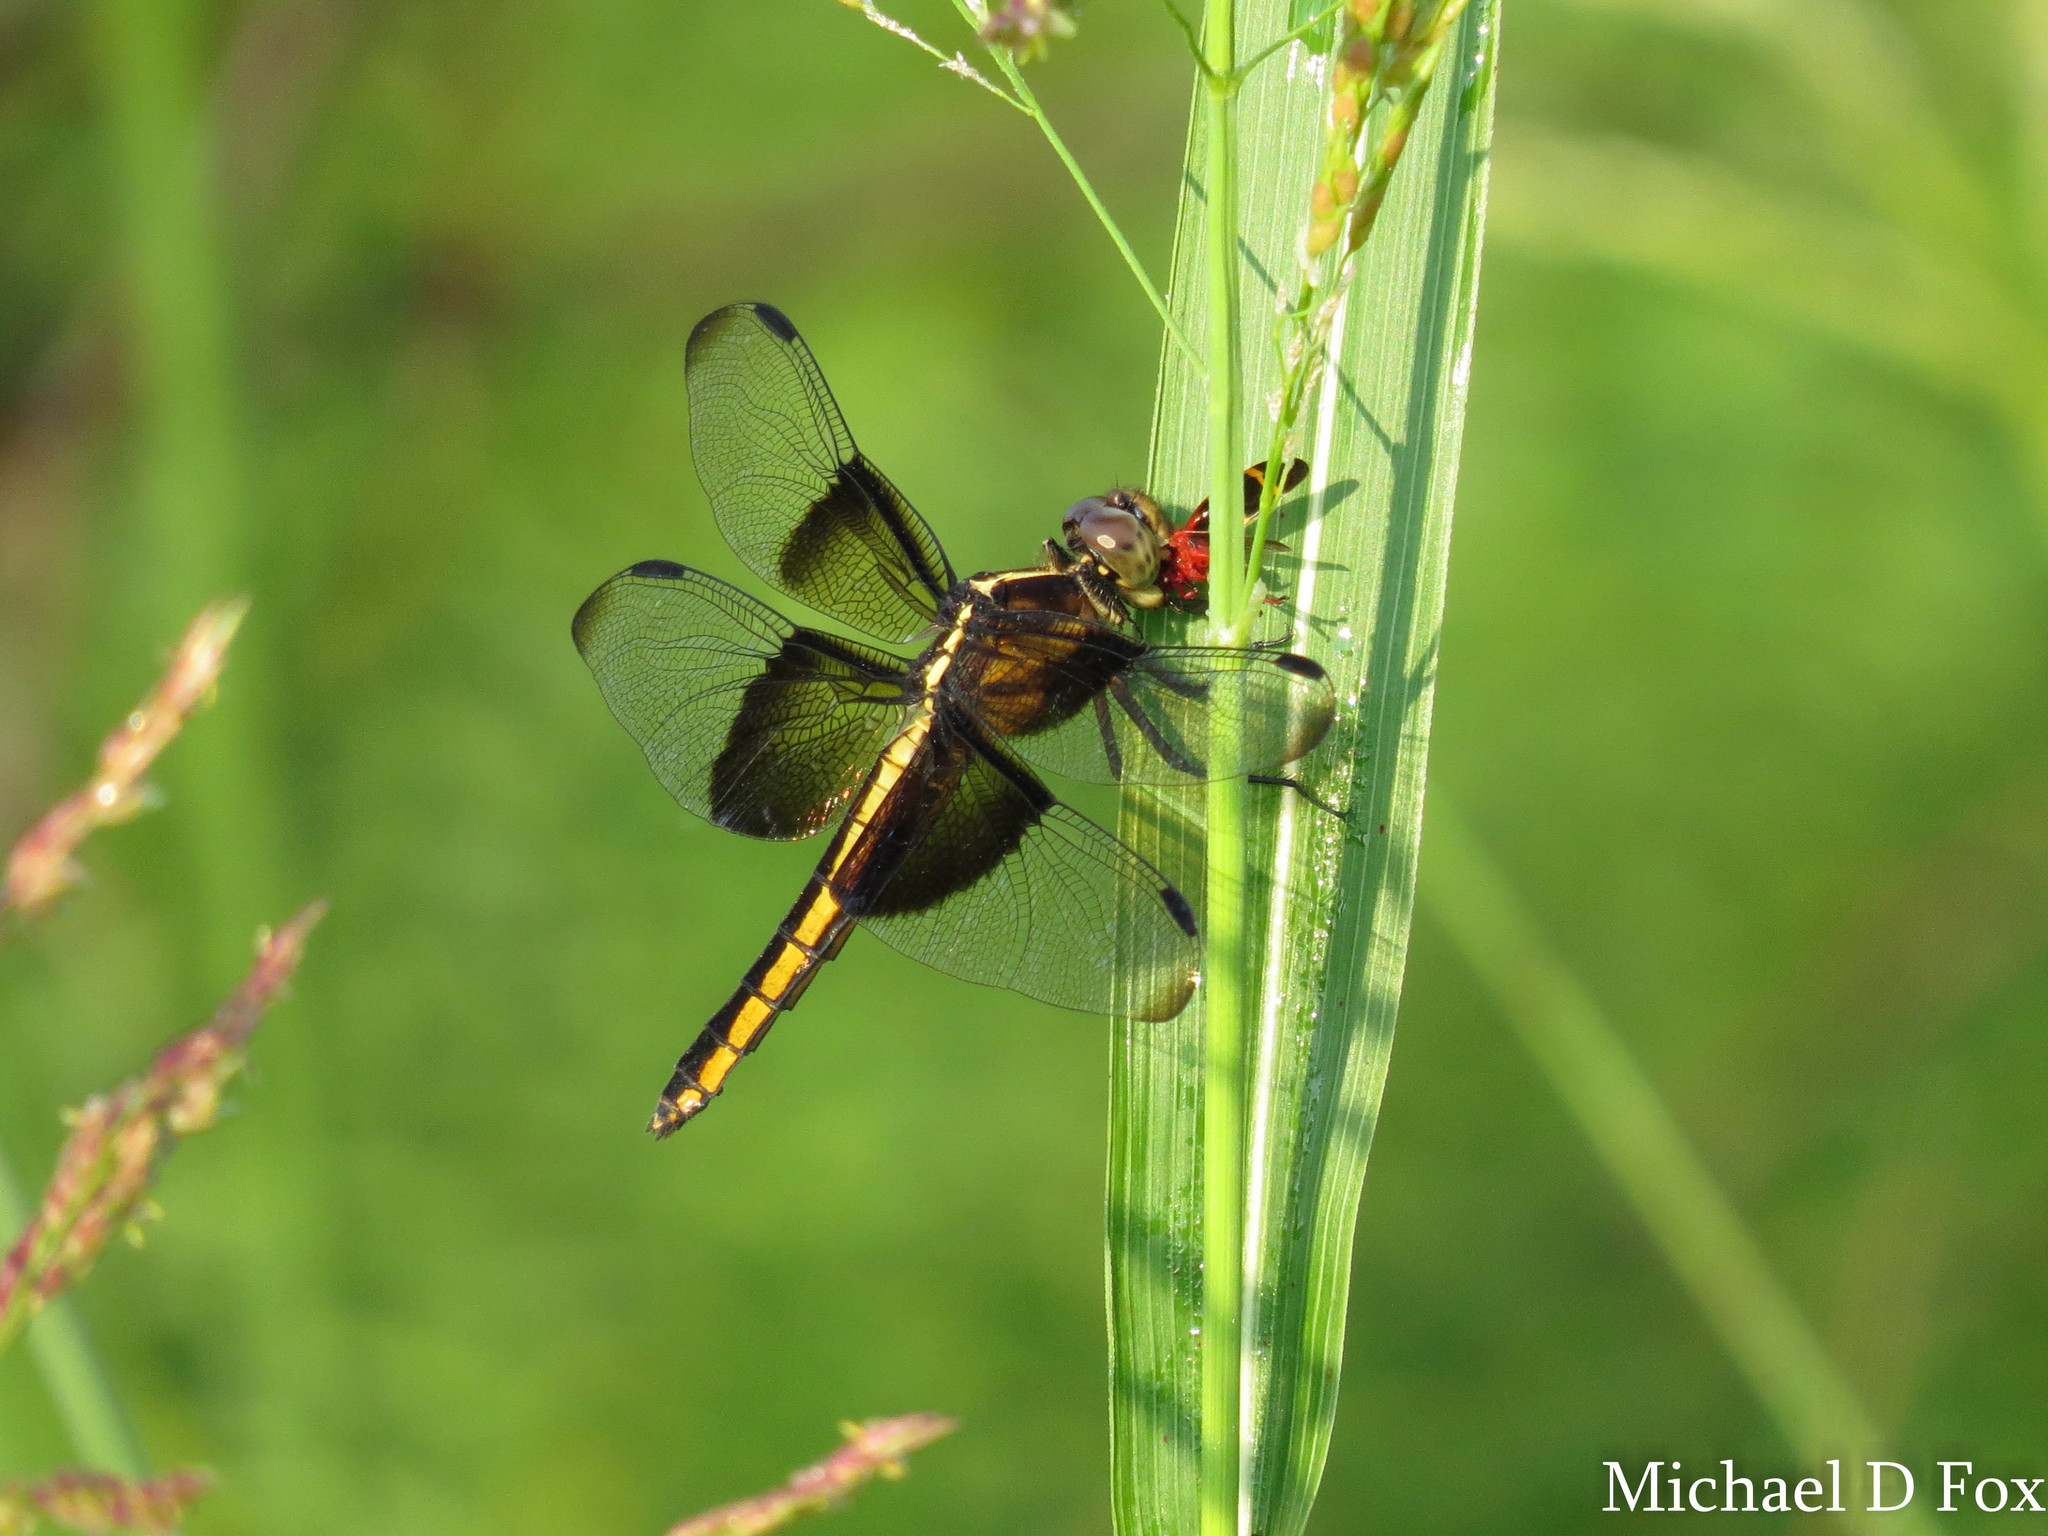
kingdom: Animalia
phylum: Arthropoda
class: Insecta
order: Odonata
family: Libellulidae
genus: Libellula
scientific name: Libellula luctuosa
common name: Widow skimmer
